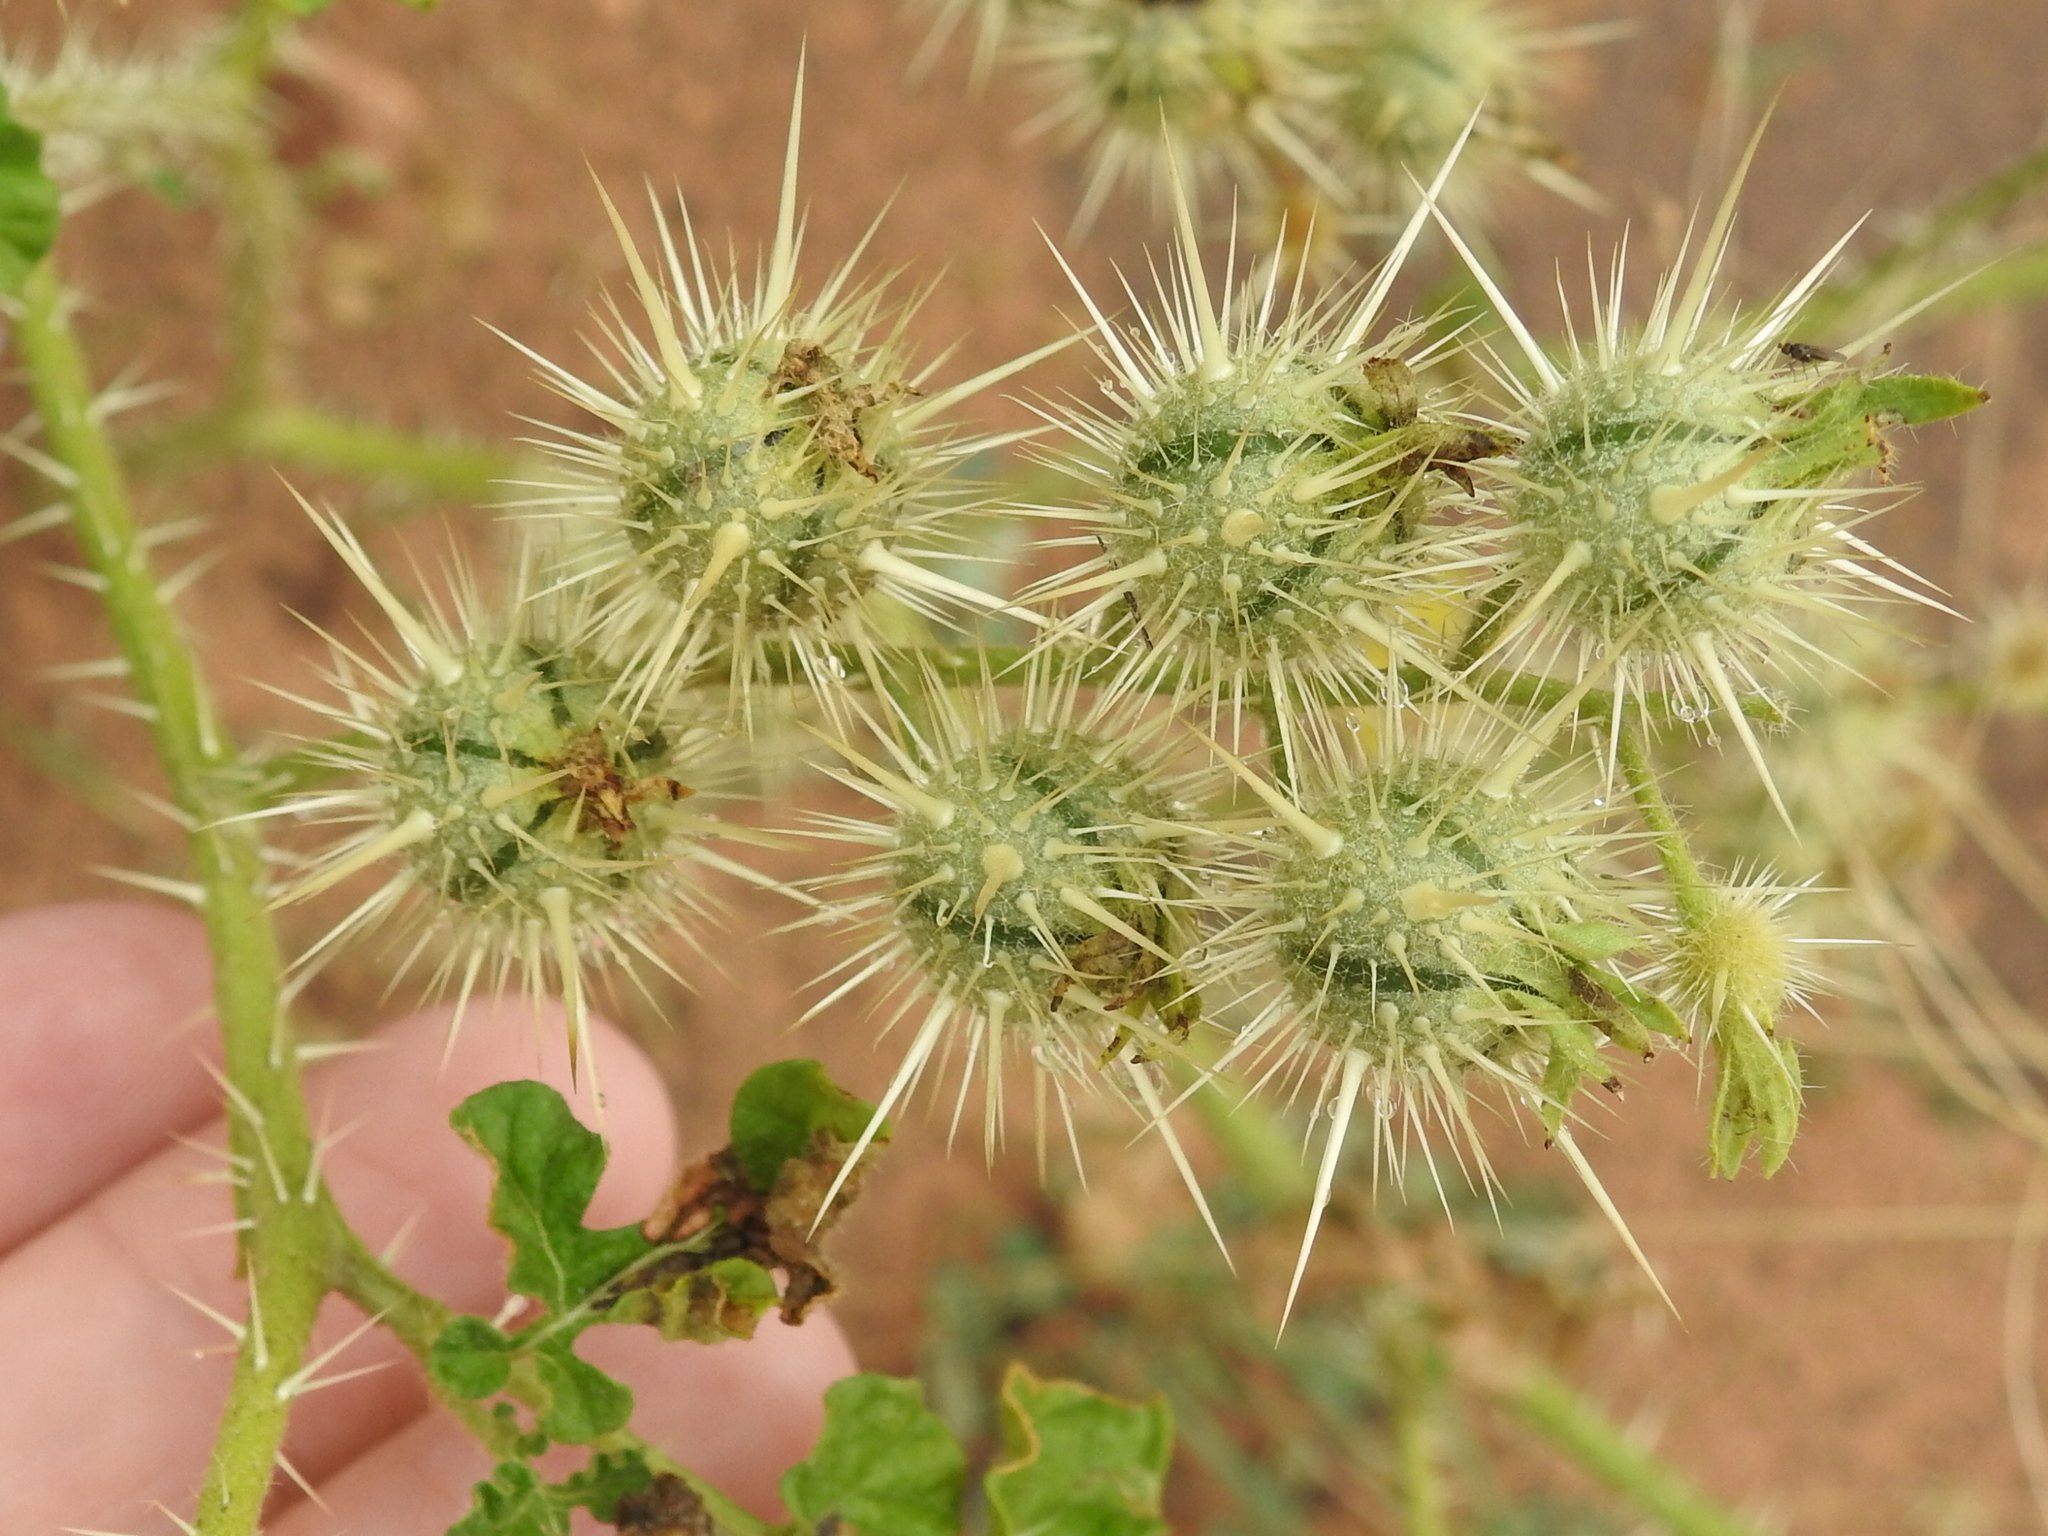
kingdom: Plantae
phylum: Tracheophyta
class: Magnoliopsida
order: Solanales
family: Solanaceae
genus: Solanum
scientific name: Solanum angustifolium
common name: Buffalobur nightshade
